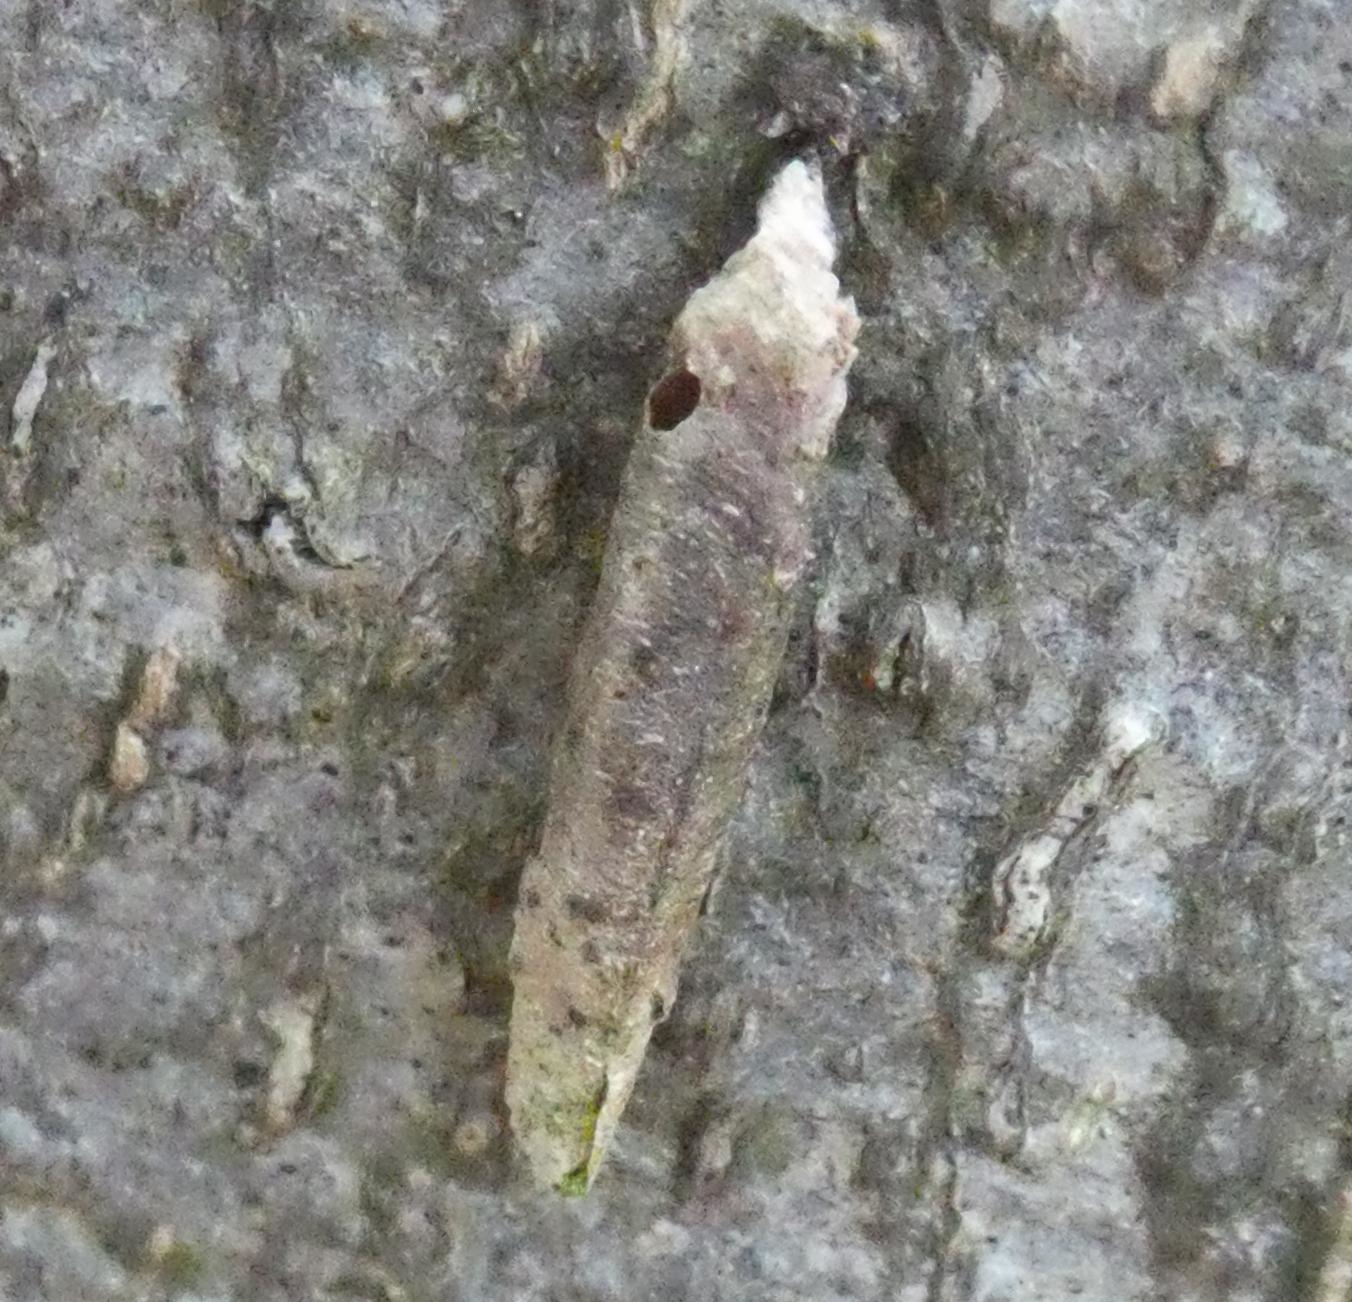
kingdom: Animalia
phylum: Arthropoda
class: Insecta
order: Lepidoptera
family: Psychidae
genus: Taleporia
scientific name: Taleporia tubulosa
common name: Brown smoke
